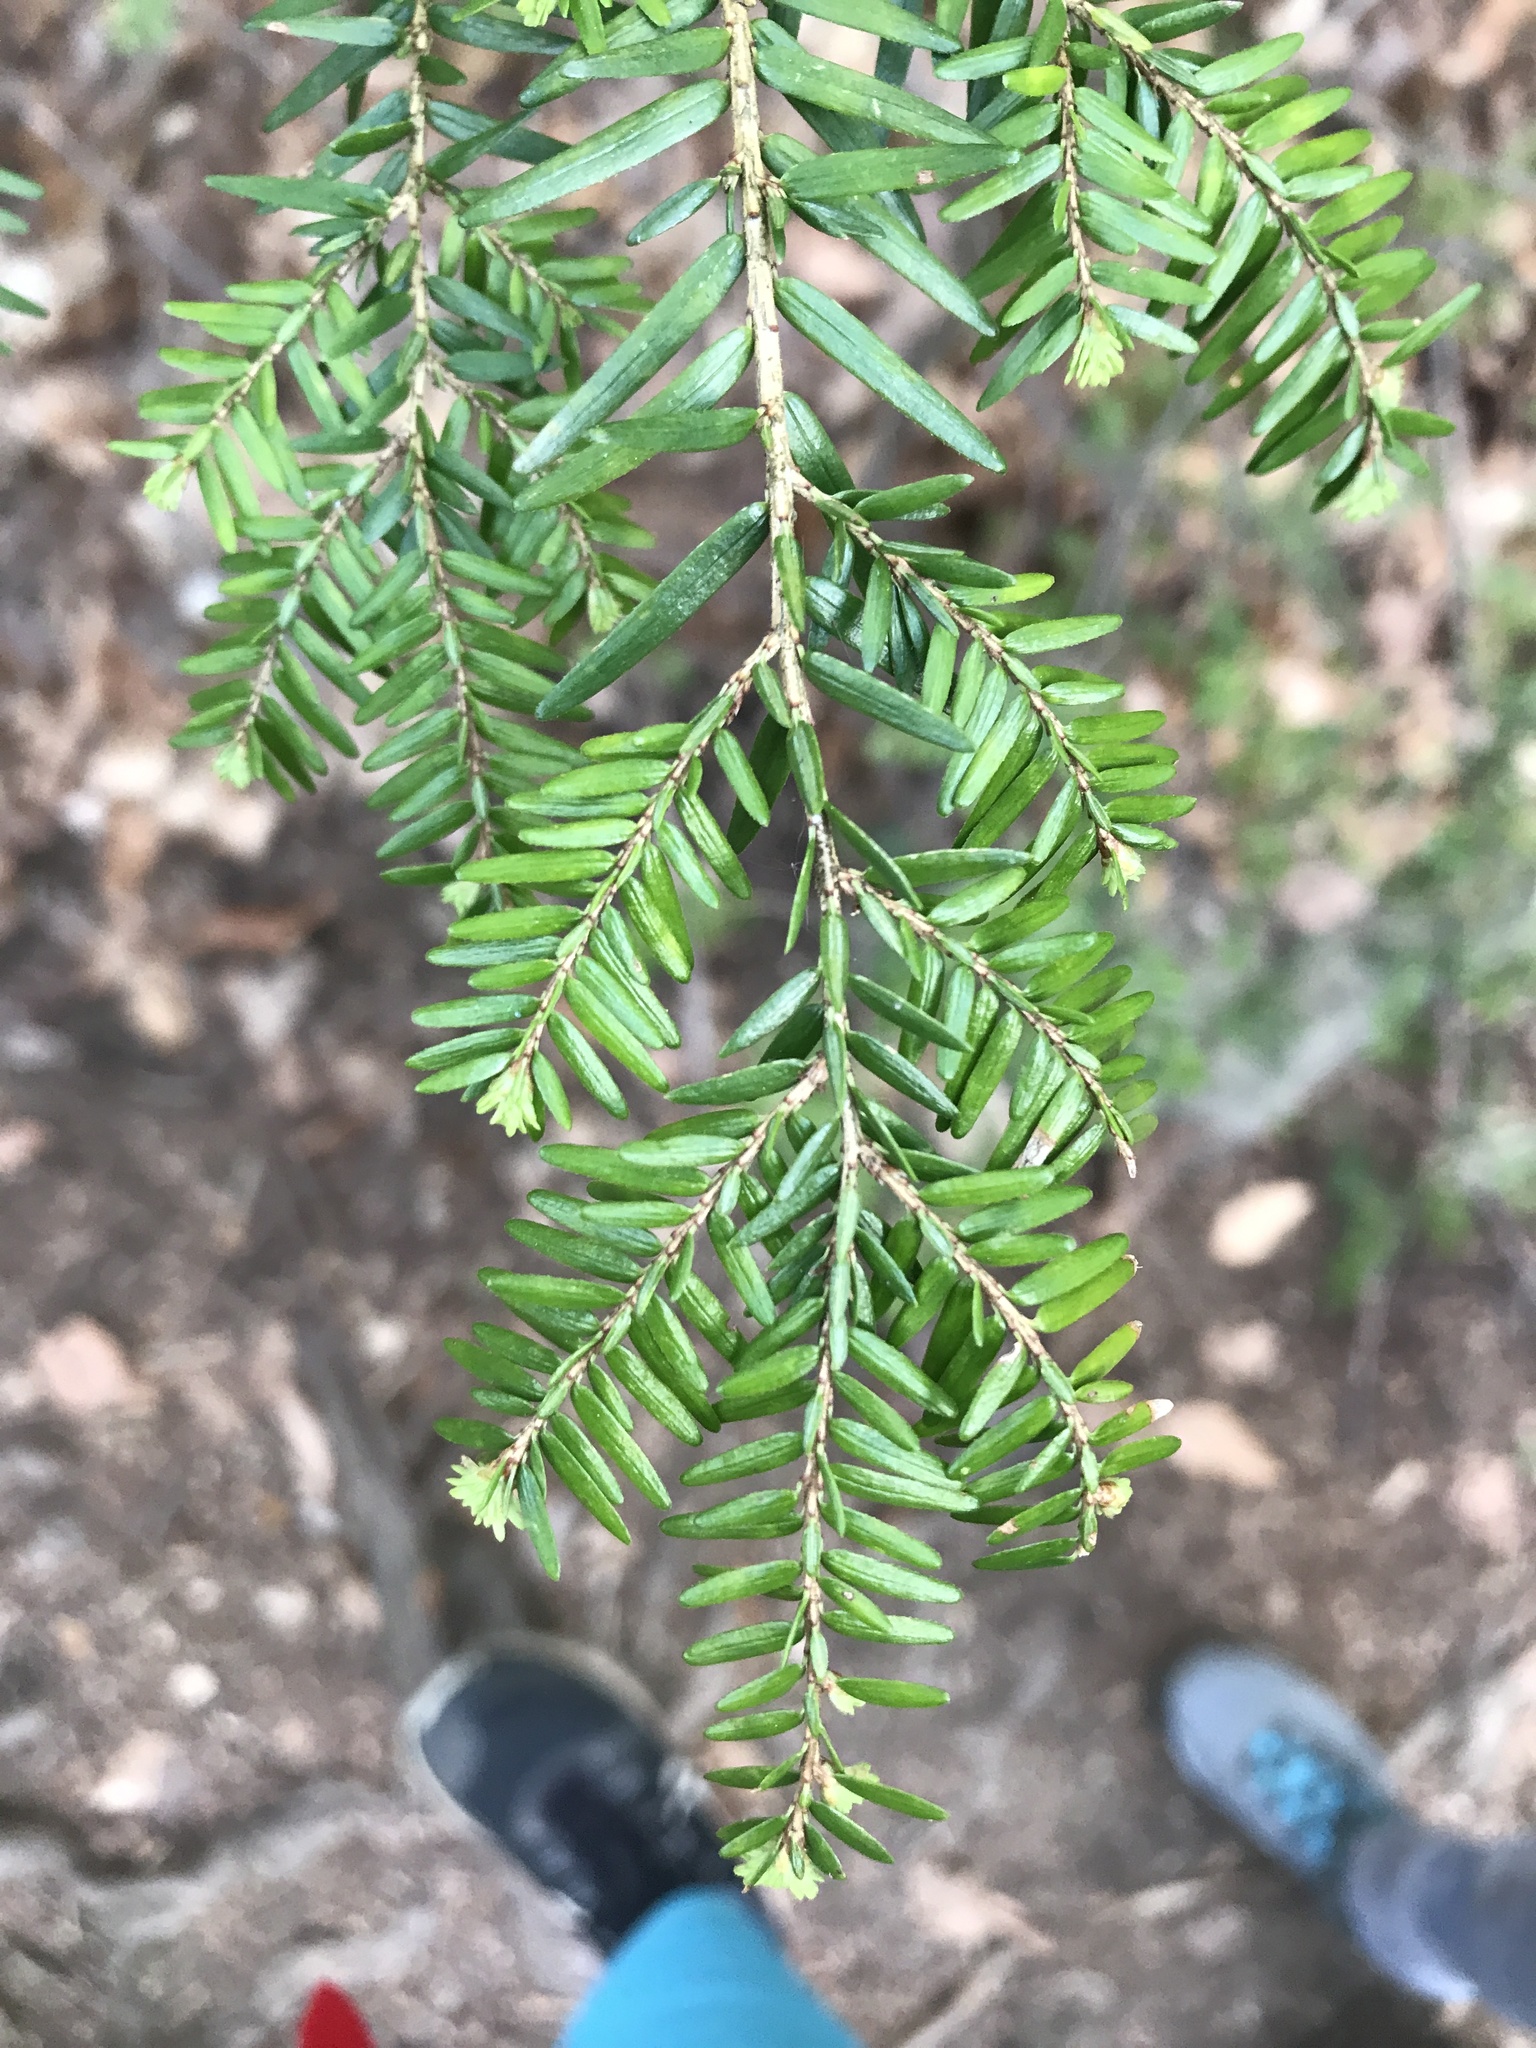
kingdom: Plantae
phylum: Tracheophyta
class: Pinopsida
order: Pinales
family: Pinaceae
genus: Tsuga
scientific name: Tsuga canadensis
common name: Eastern hemlock
